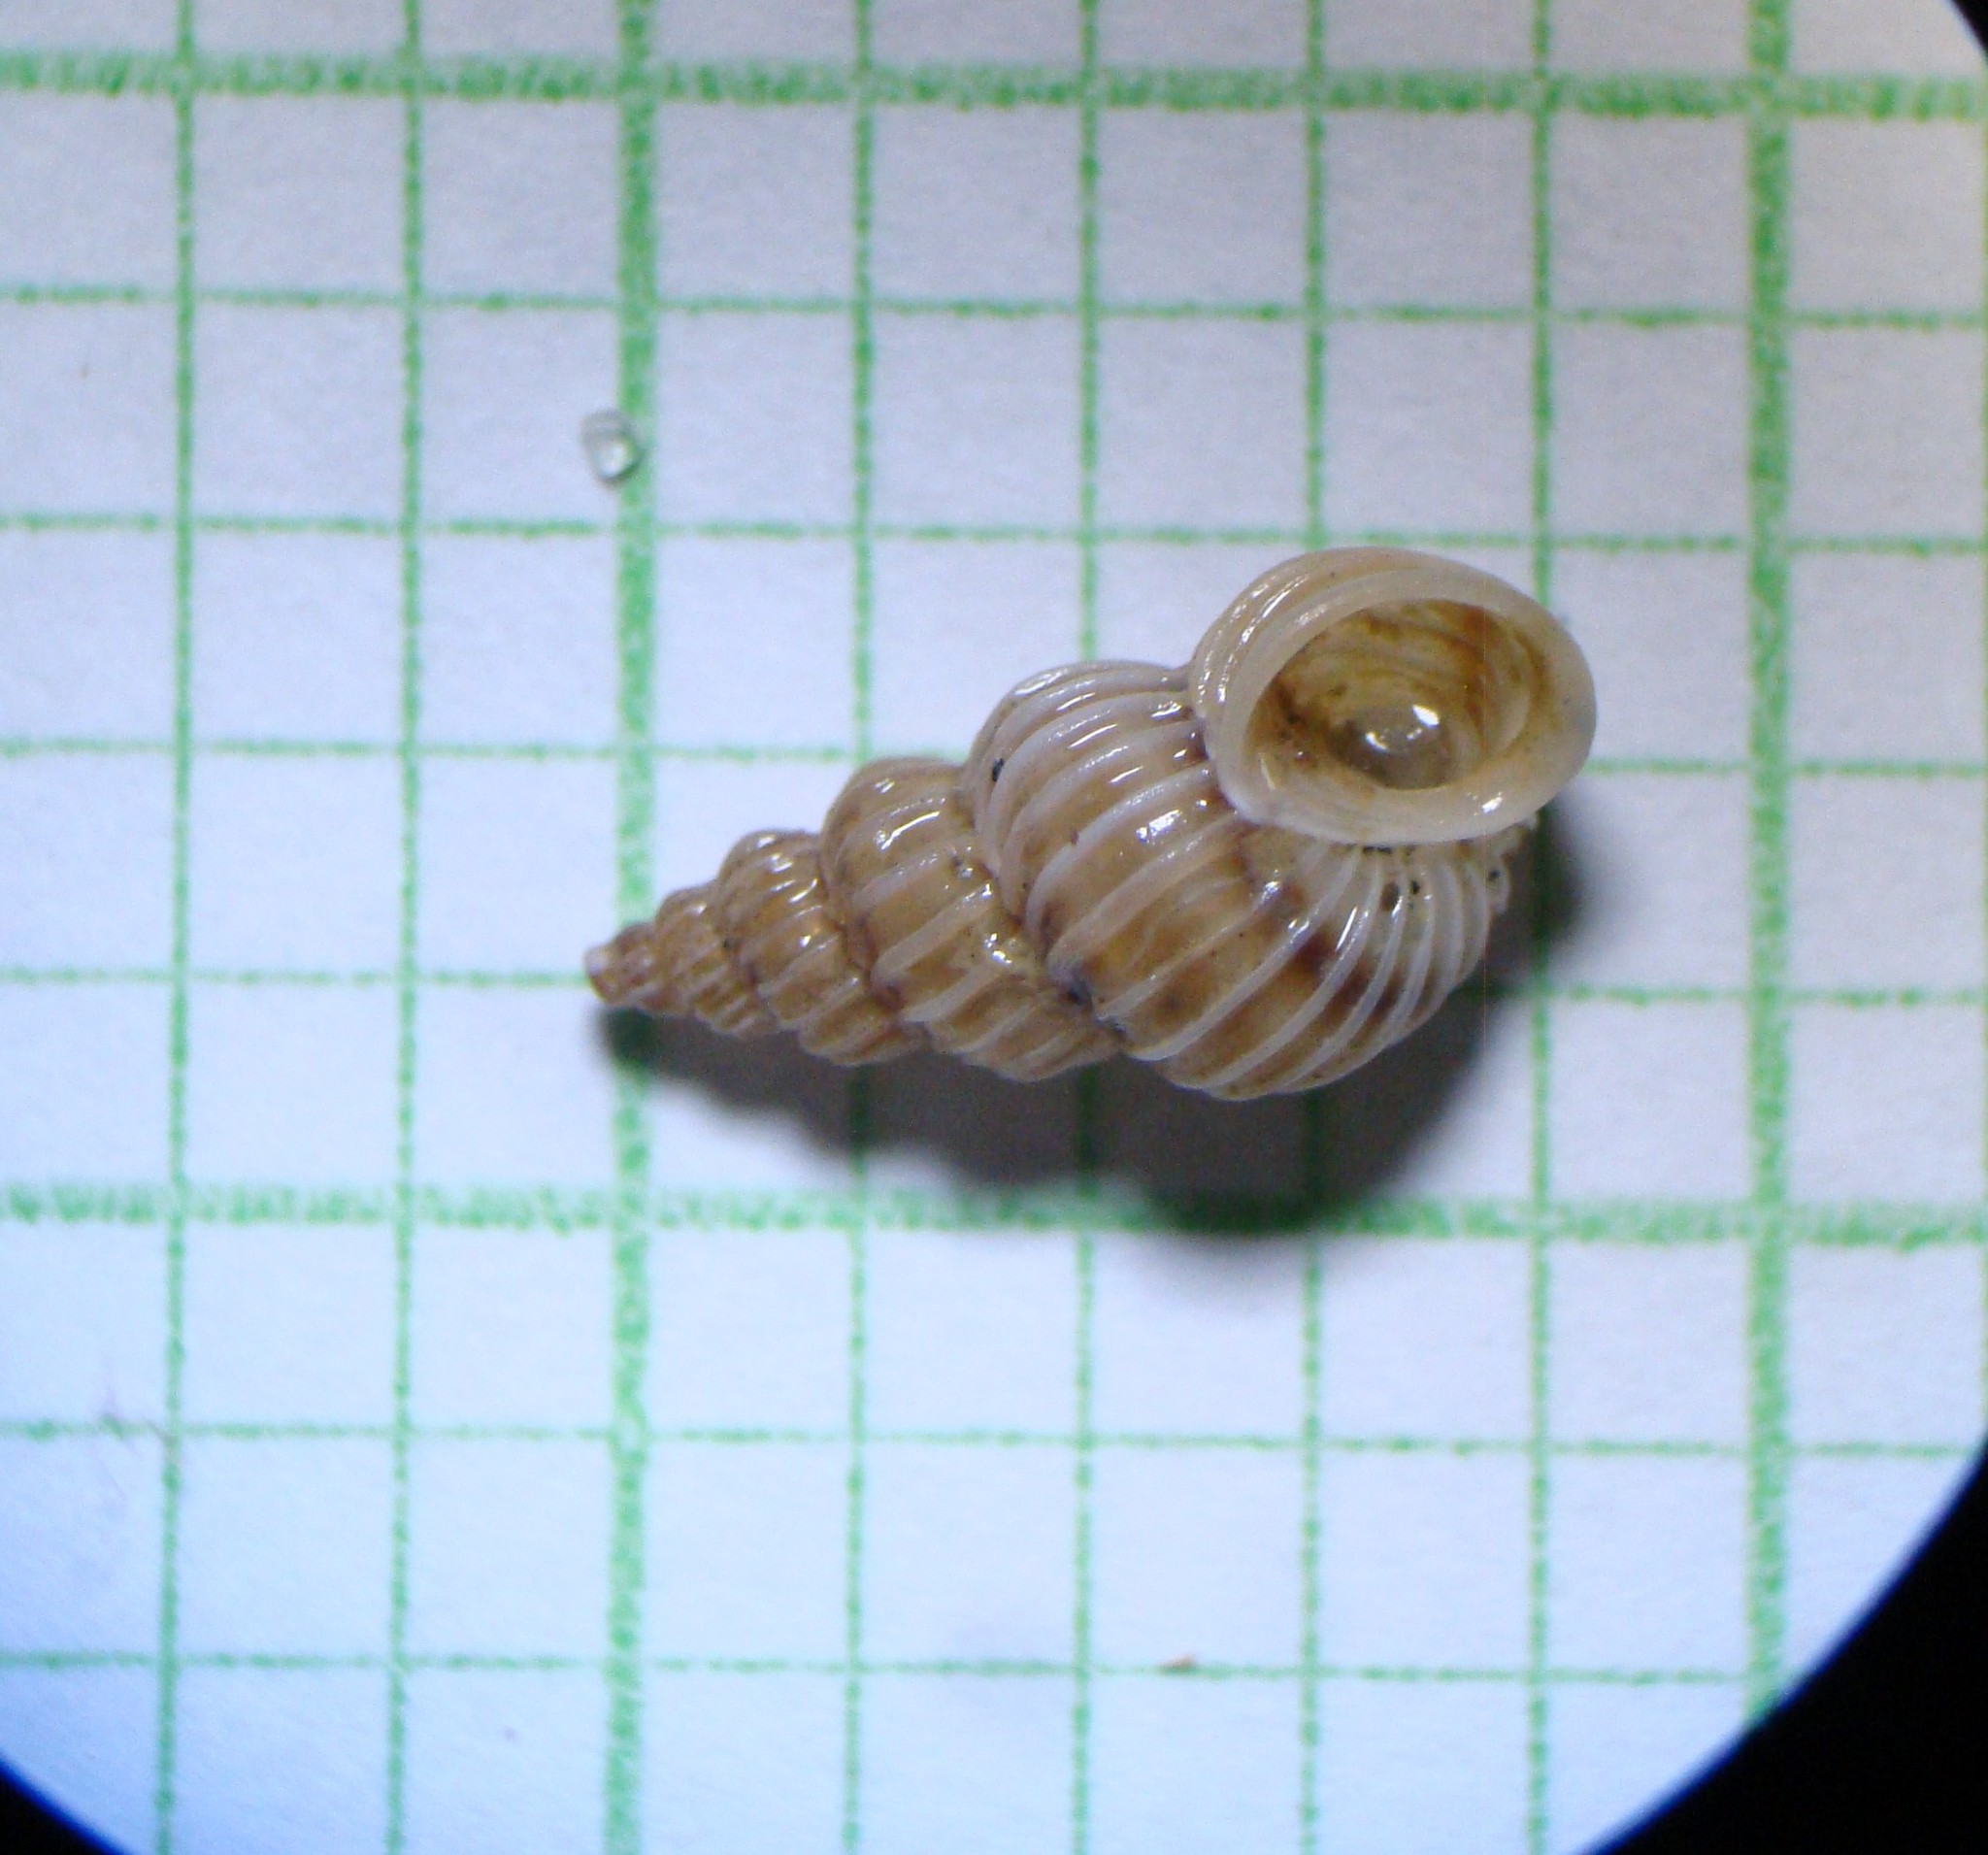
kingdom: Animalia
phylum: Mollusca
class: Gastropoda
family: Epitoniidae
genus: Epitonium
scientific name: Epitonium tenellum
